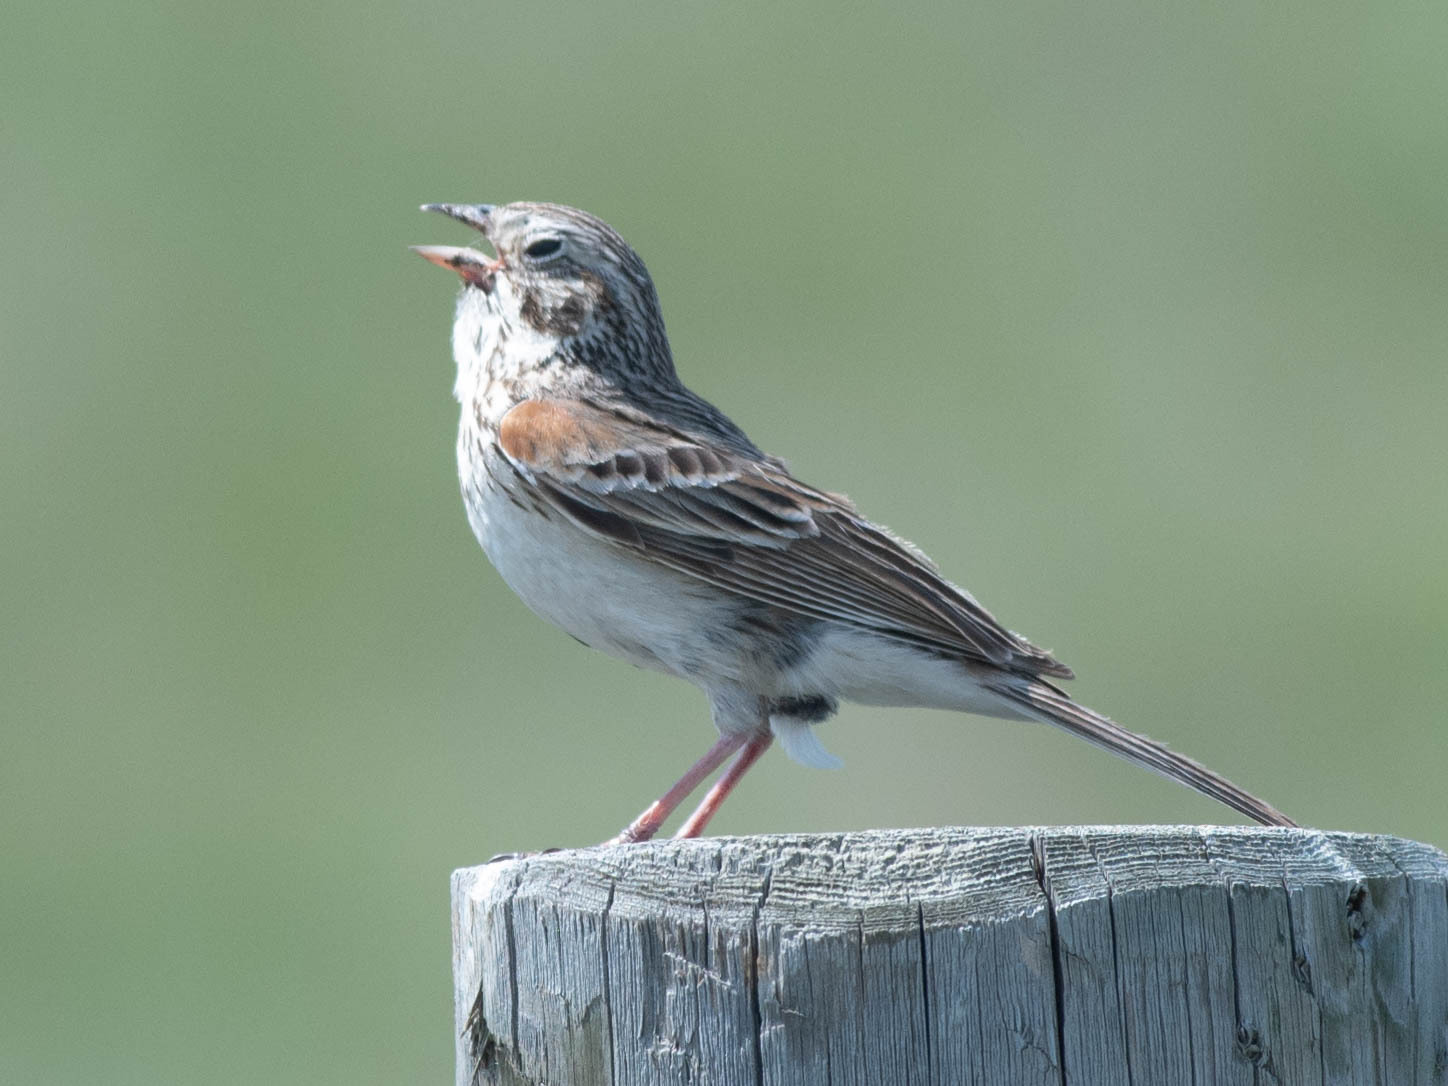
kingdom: Animalia
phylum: Chordata
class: Aves
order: Passeriformes
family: Passerellidae
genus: Pooecetes
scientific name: Pooecetes gramineus
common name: Vesper sparrow
